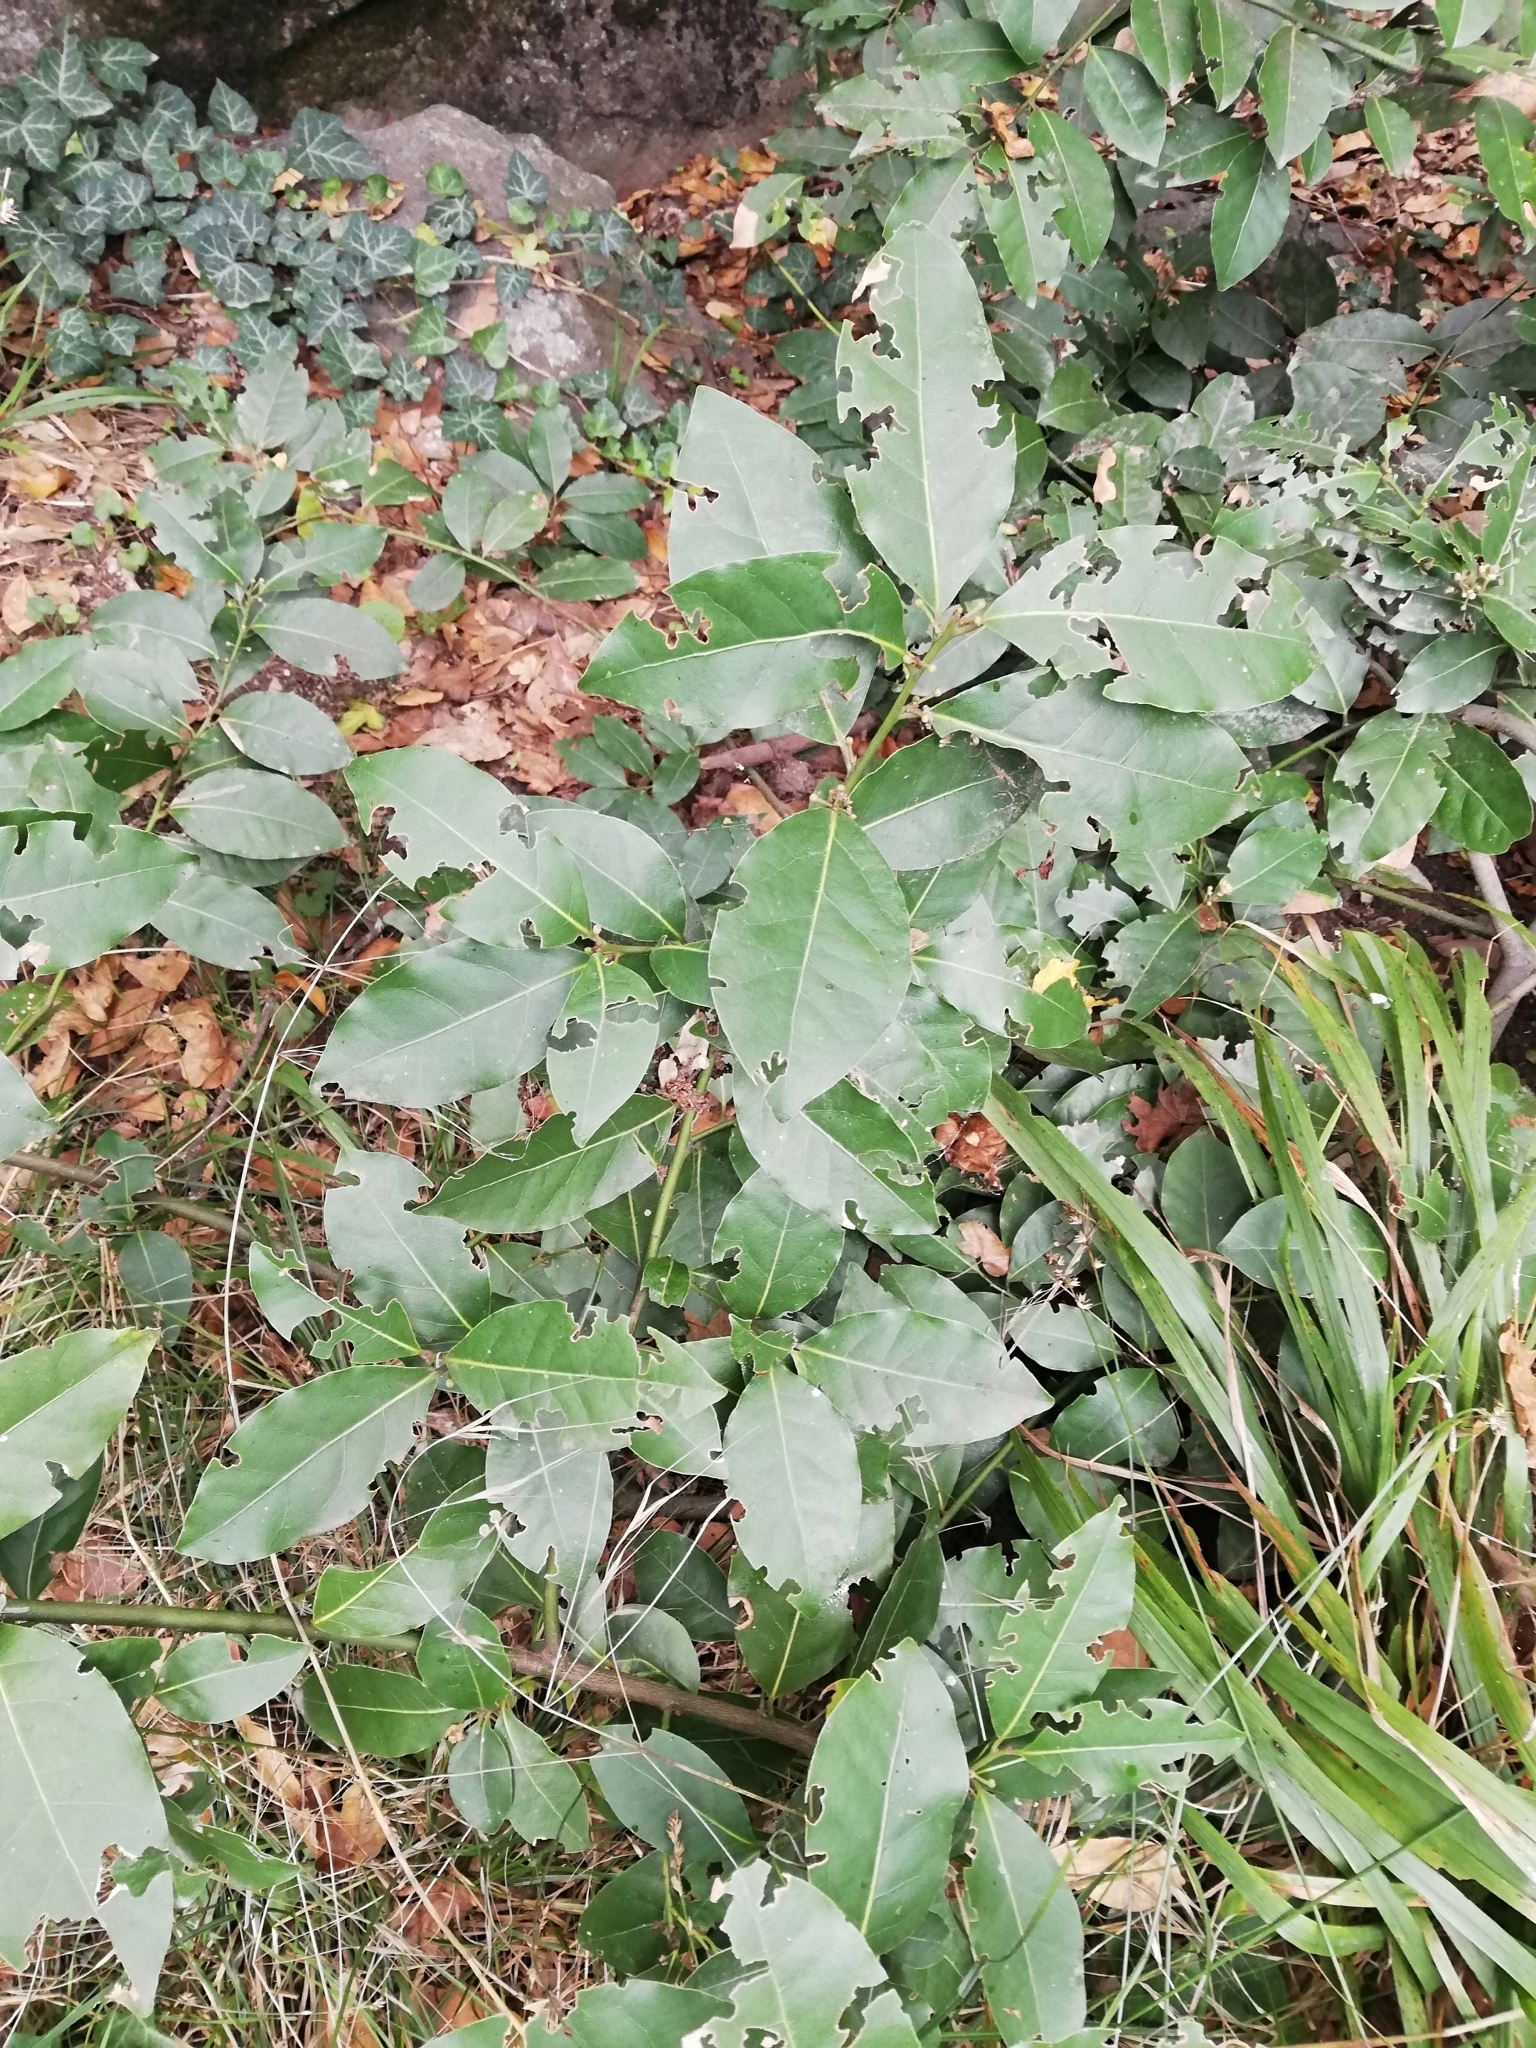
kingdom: Plantae
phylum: Tracheophyta
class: Magnoliopsida
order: Laurales
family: Lauraceae
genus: Laurus
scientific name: Laurus nobilis
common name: Bay
